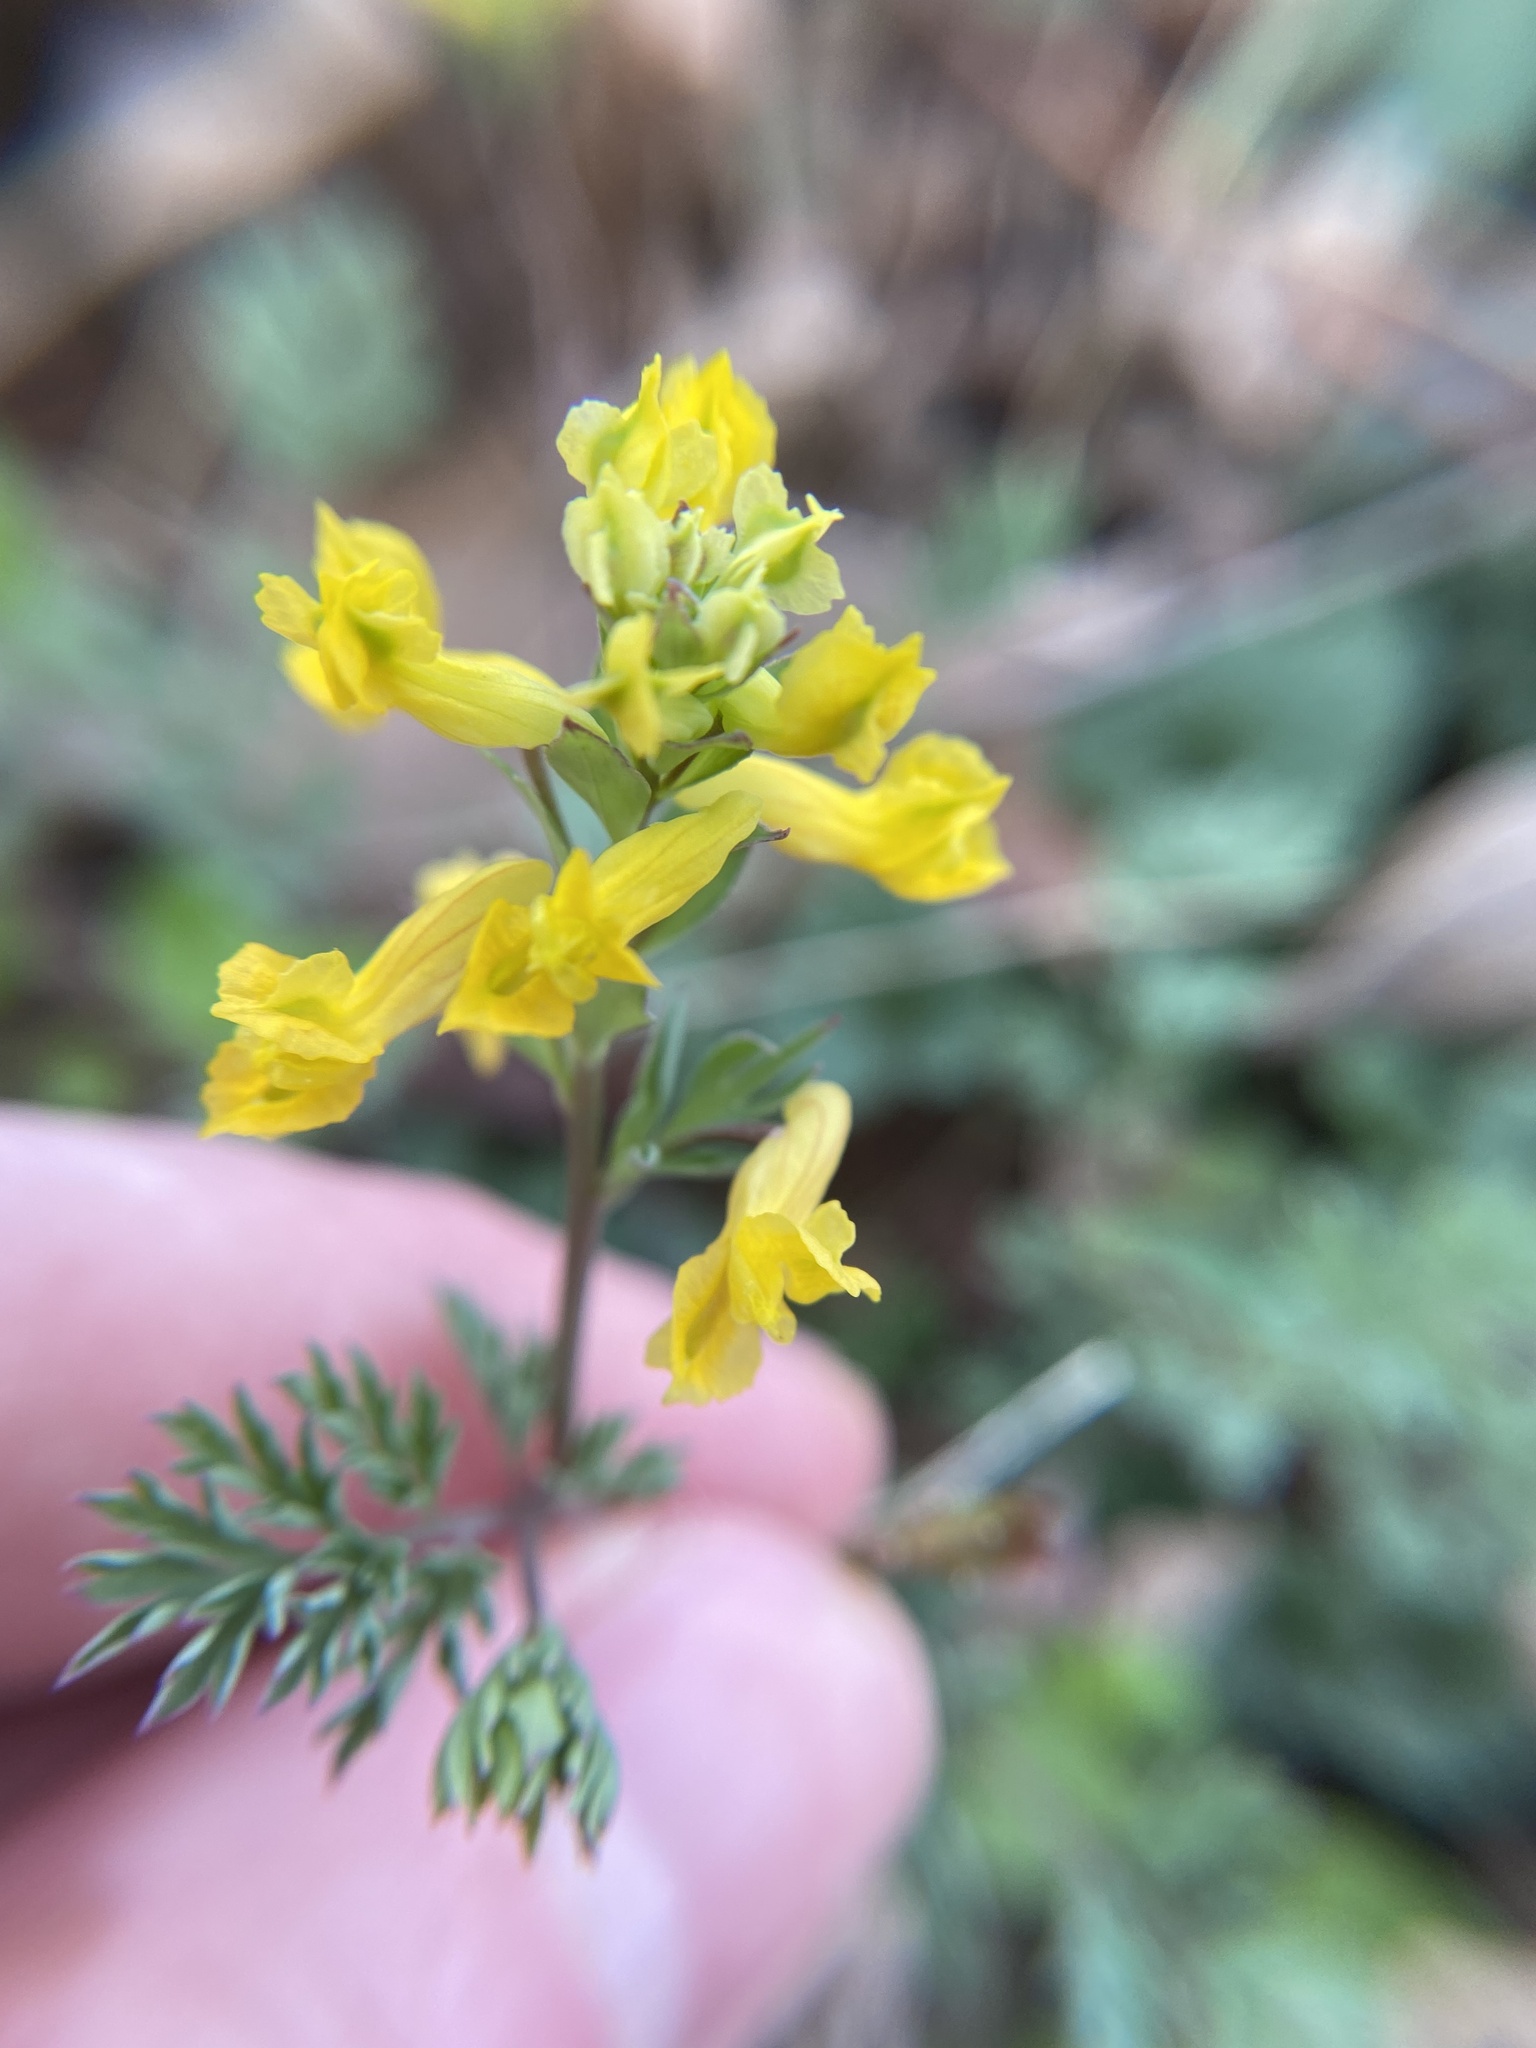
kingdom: Plantae
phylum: Tracheophyta
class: Magnoliopsida
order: Ranunculales
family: Papaveraceae
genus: Corydalis
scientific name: Corydalis flavula
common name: Yellow corydalis
